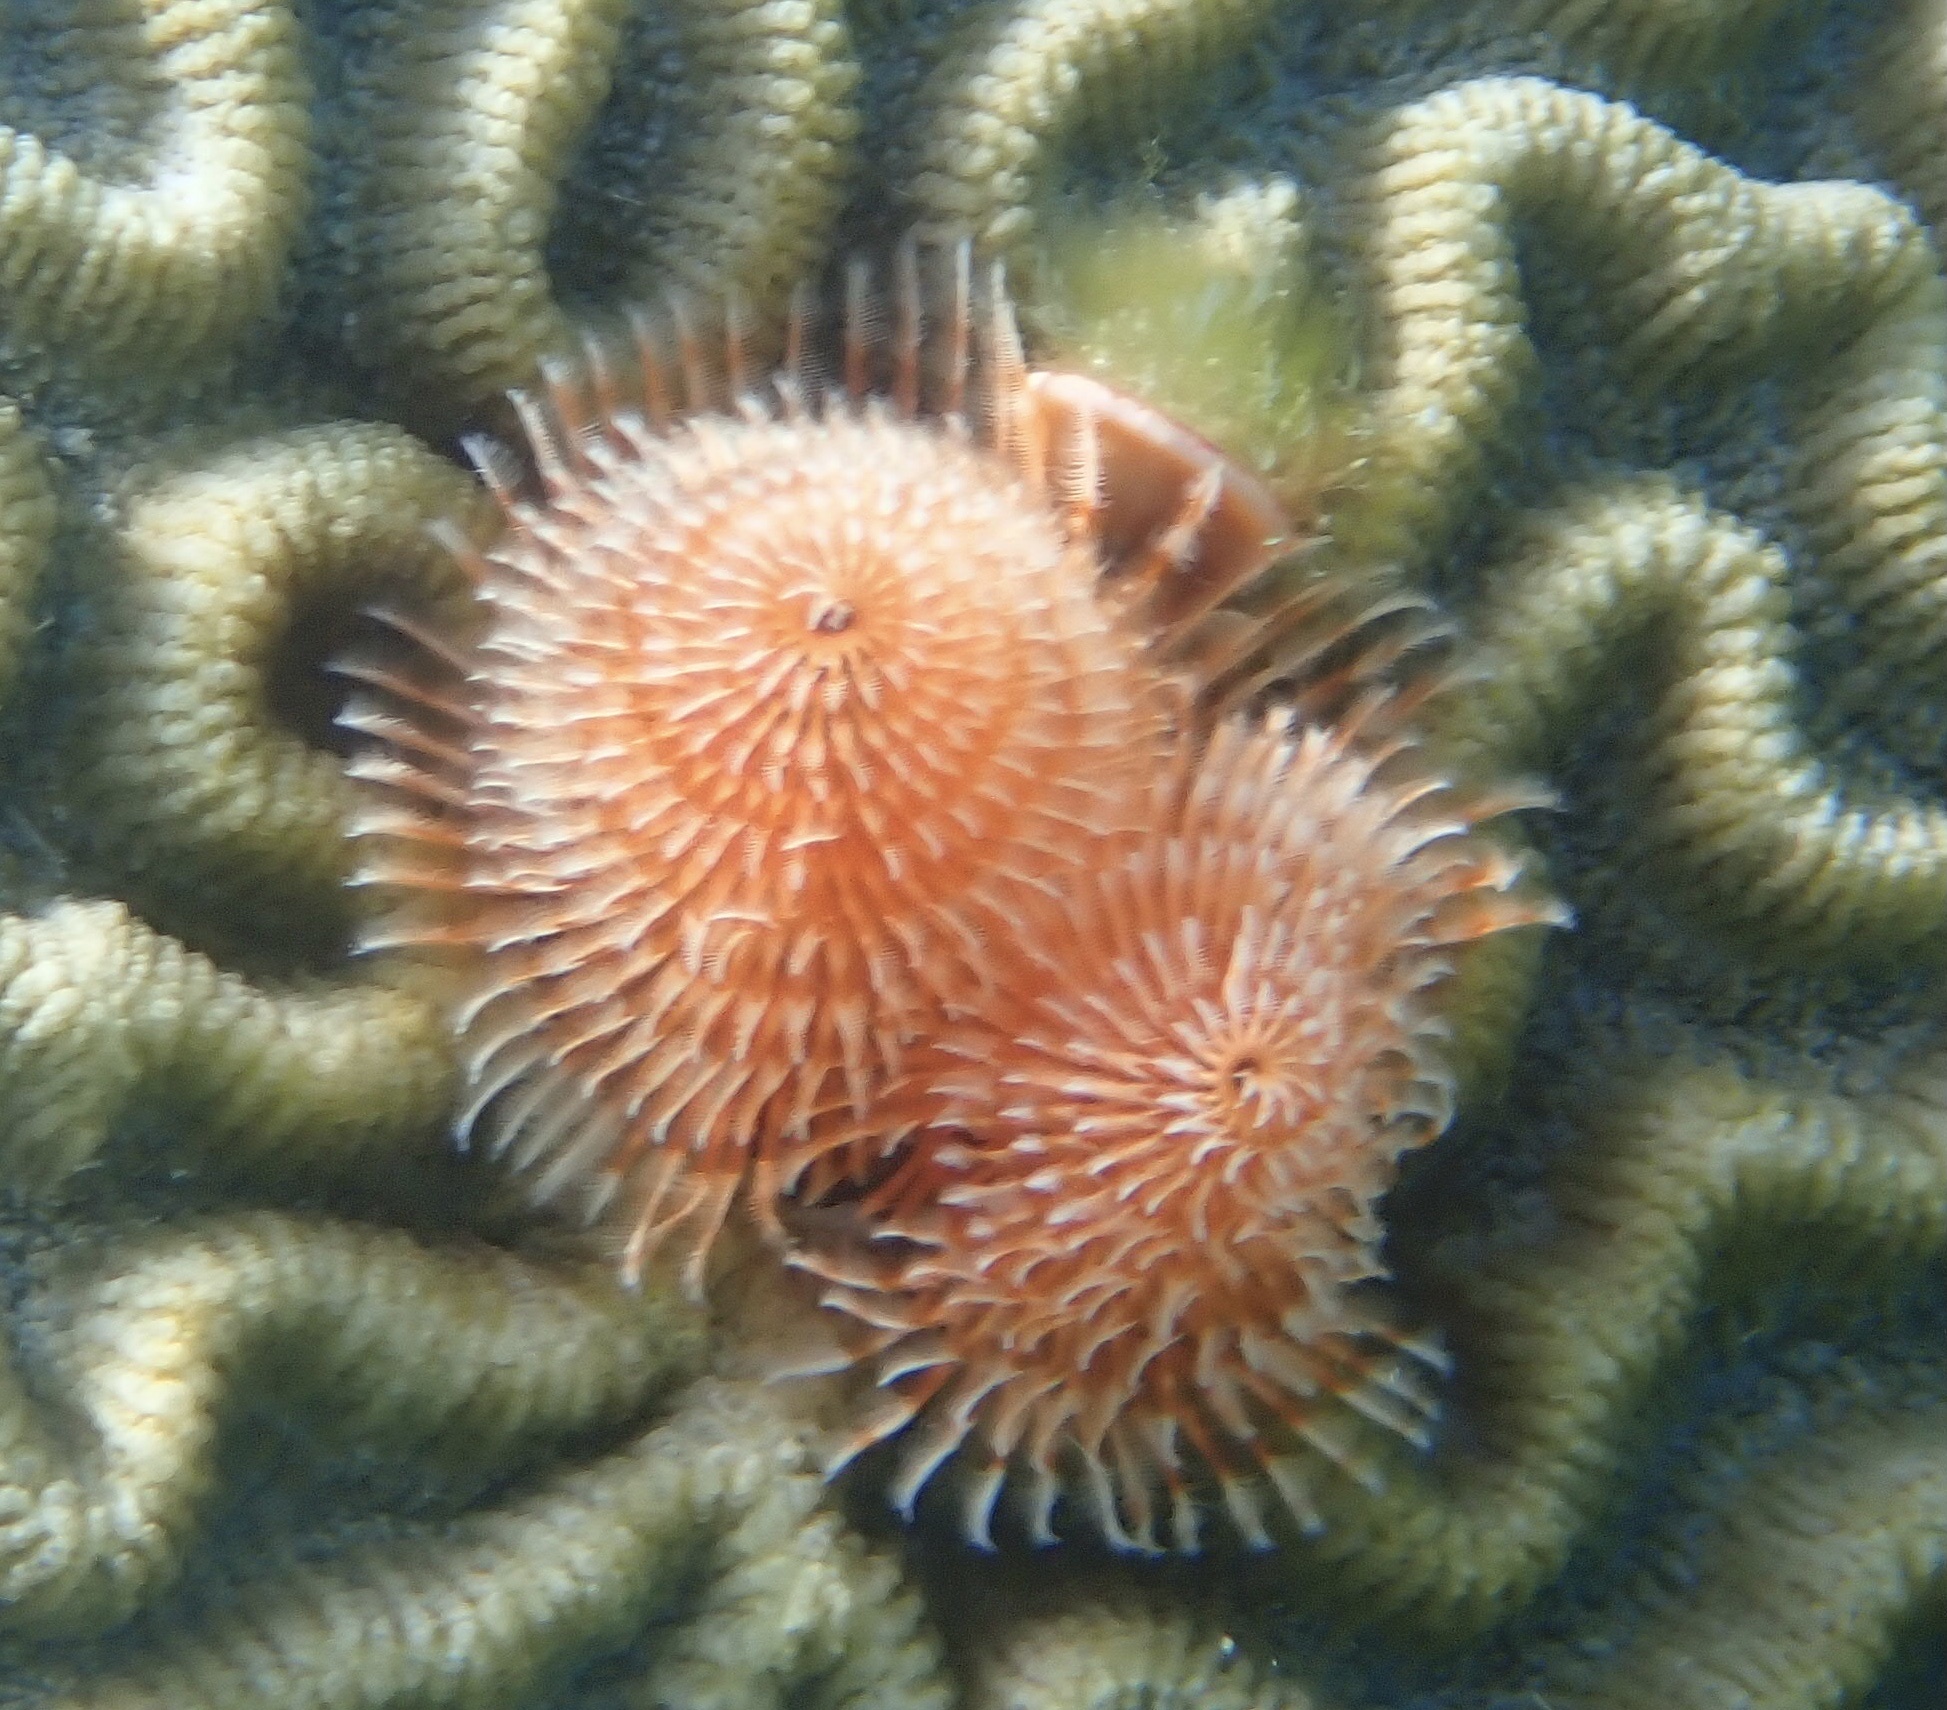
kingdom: Animalia
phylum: Annelida
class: Polychaeta
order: Sabellida
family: Serpulidae
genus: Spirobranchus
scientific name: Spirobranchus giganteus
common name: Christmas tree worm
